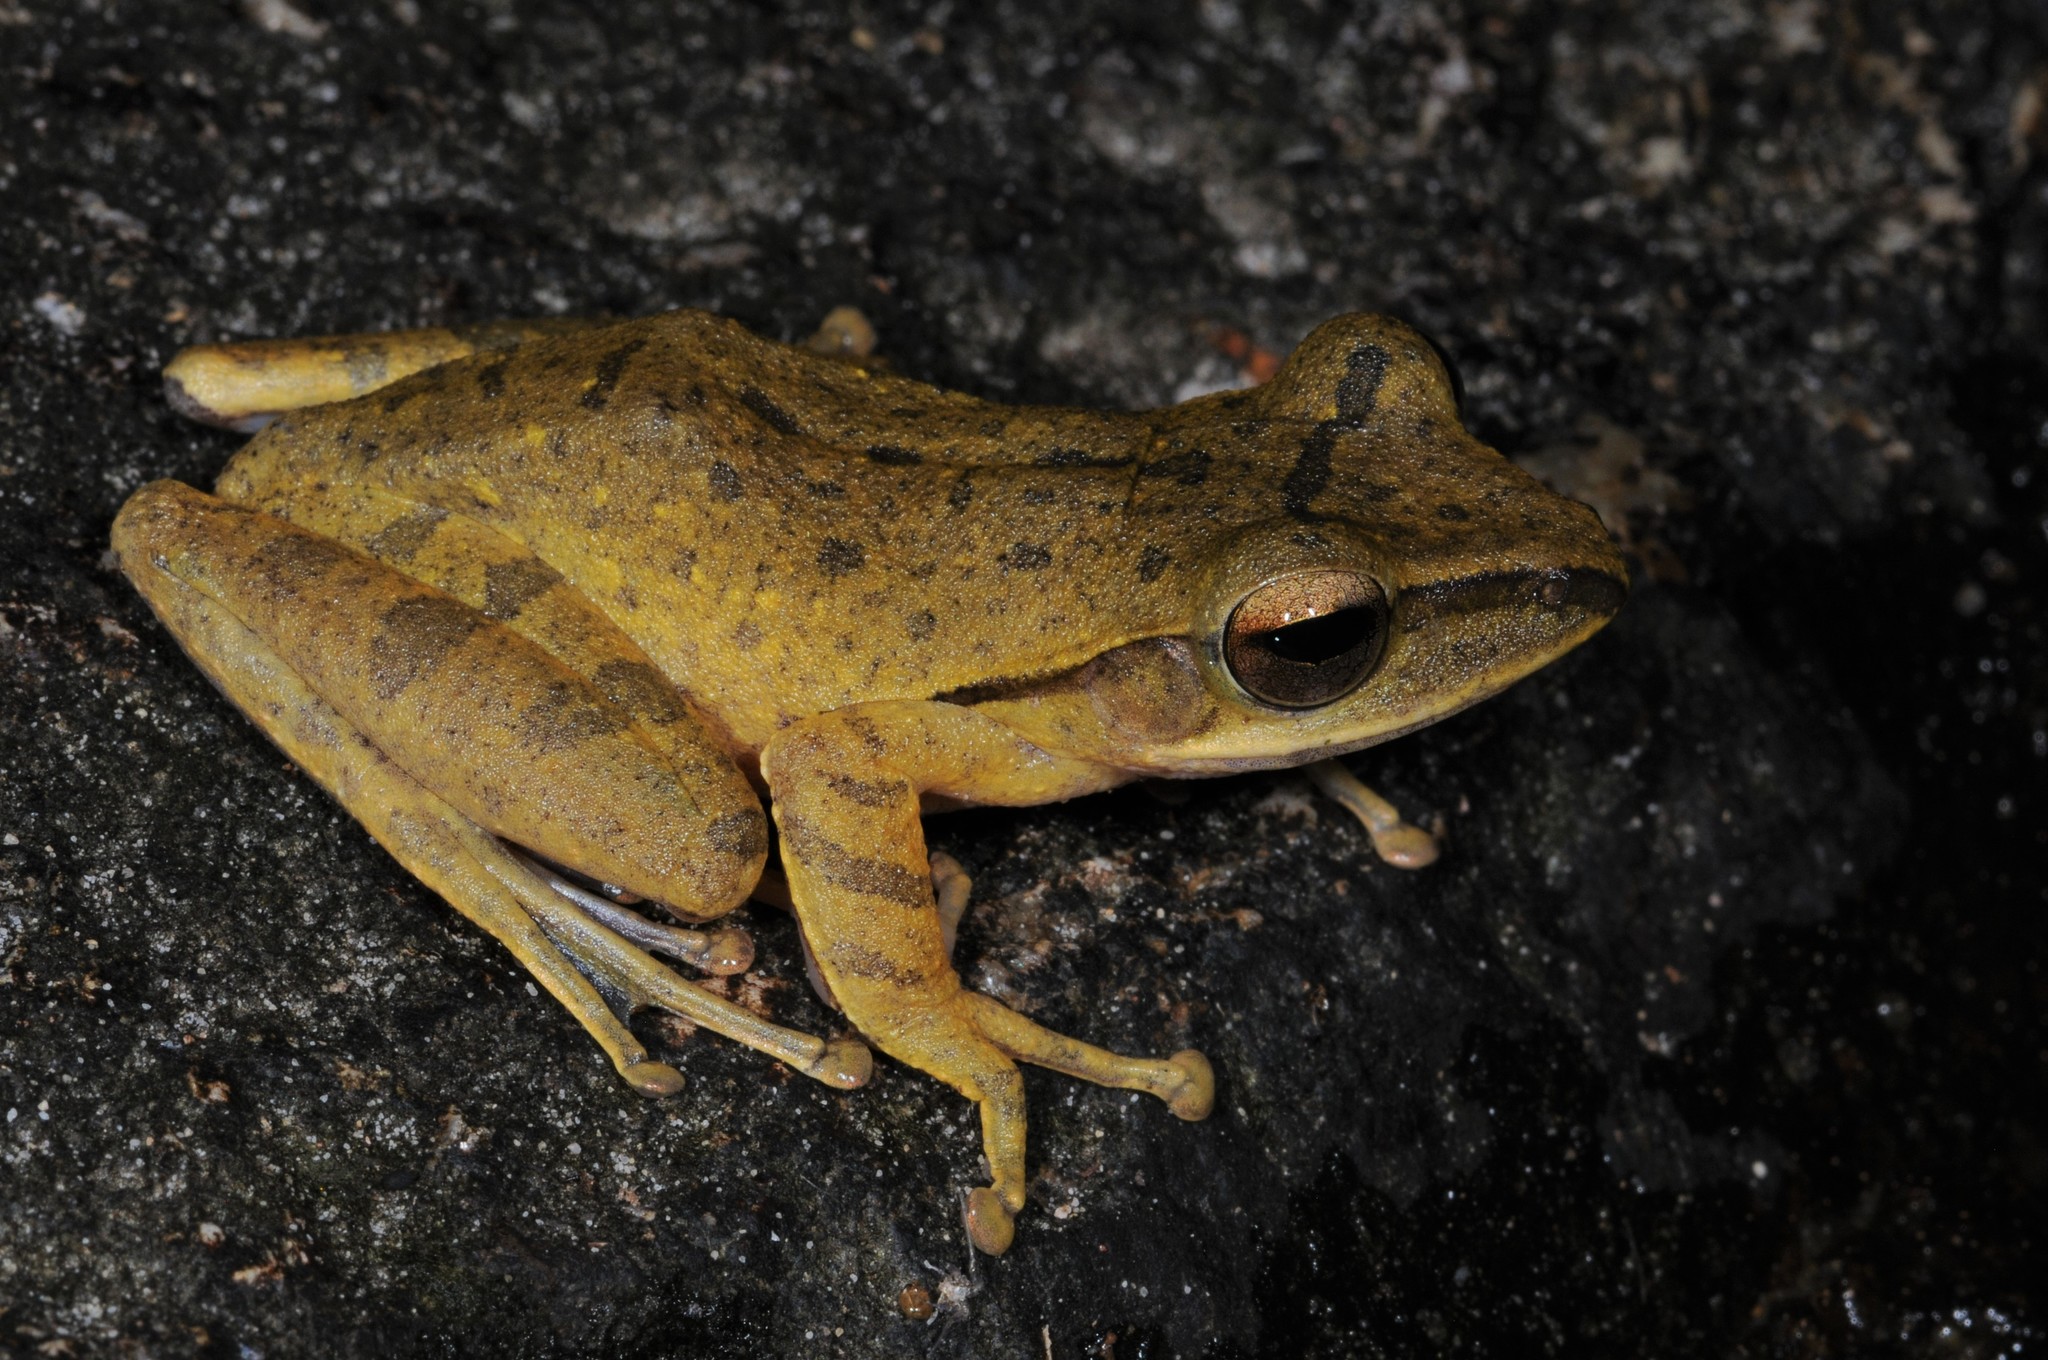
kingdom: Animalia
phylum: Chordata
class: Amphibia
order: Anura
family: Rhacophoridae
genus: Polypedates
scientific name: Polypedates leucomystax
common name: Common tree frog/four-lined tree frog
